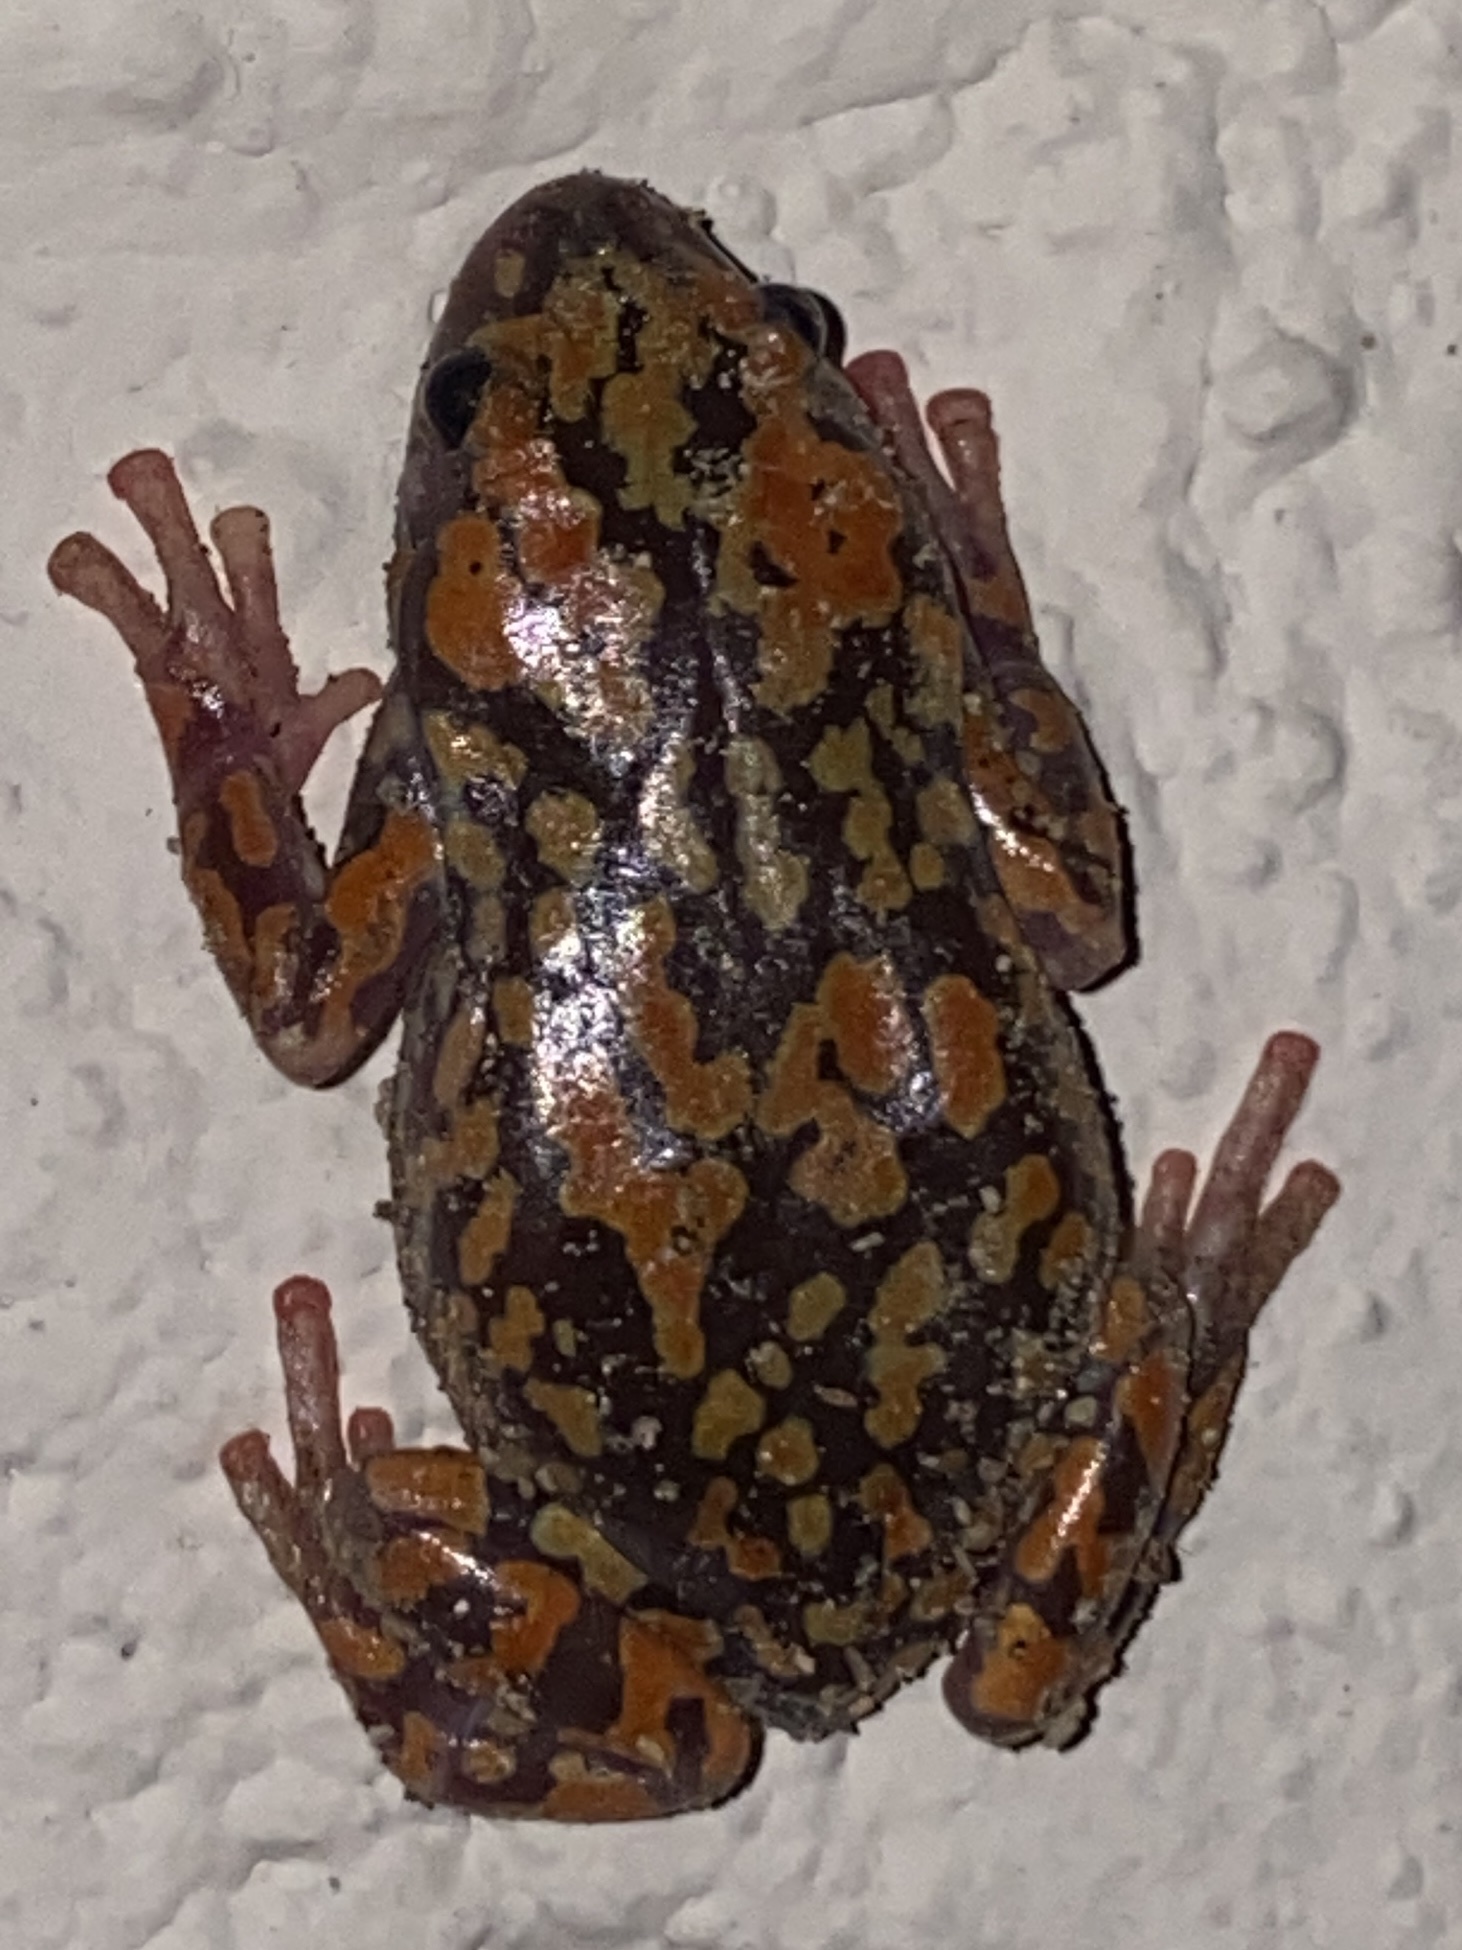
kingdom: Animalia
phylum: Chordata
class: Amphibia
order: Anura
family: Microhylidae
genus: Phrynomantis
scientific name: Phrynomantis annectens
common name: Marbled rubber frog
